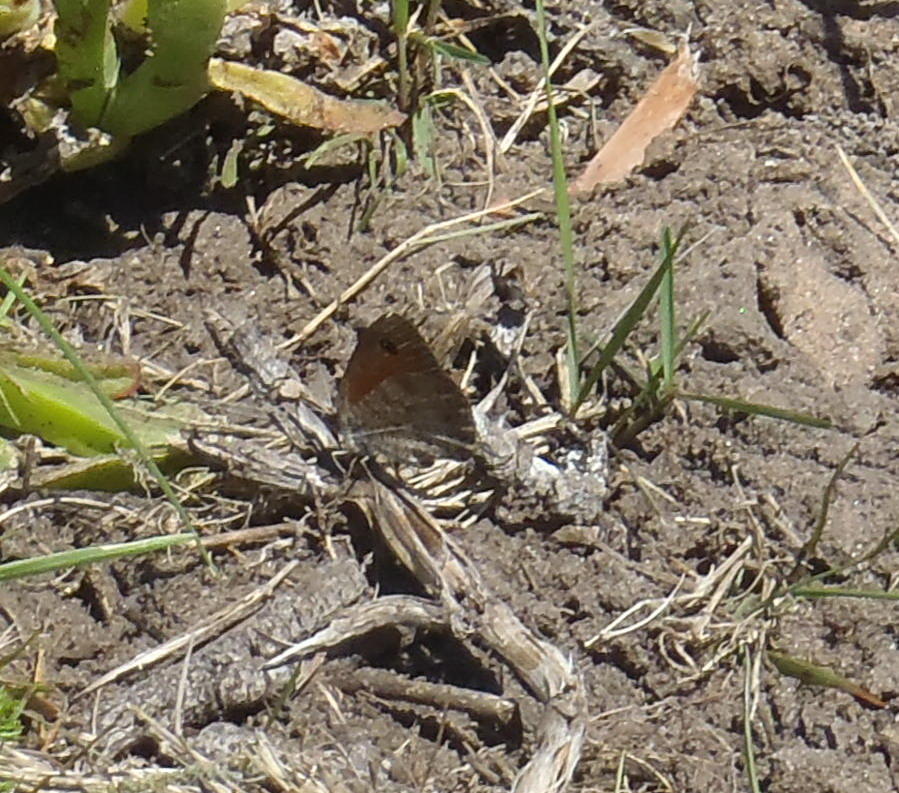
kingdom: Animalia
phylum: Arthropoda
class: Insecta
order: Lepidoptera
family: Nymphalidae
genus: Pseudonympha
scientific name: Pseudonympha magus
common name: Silver-bottom brown
